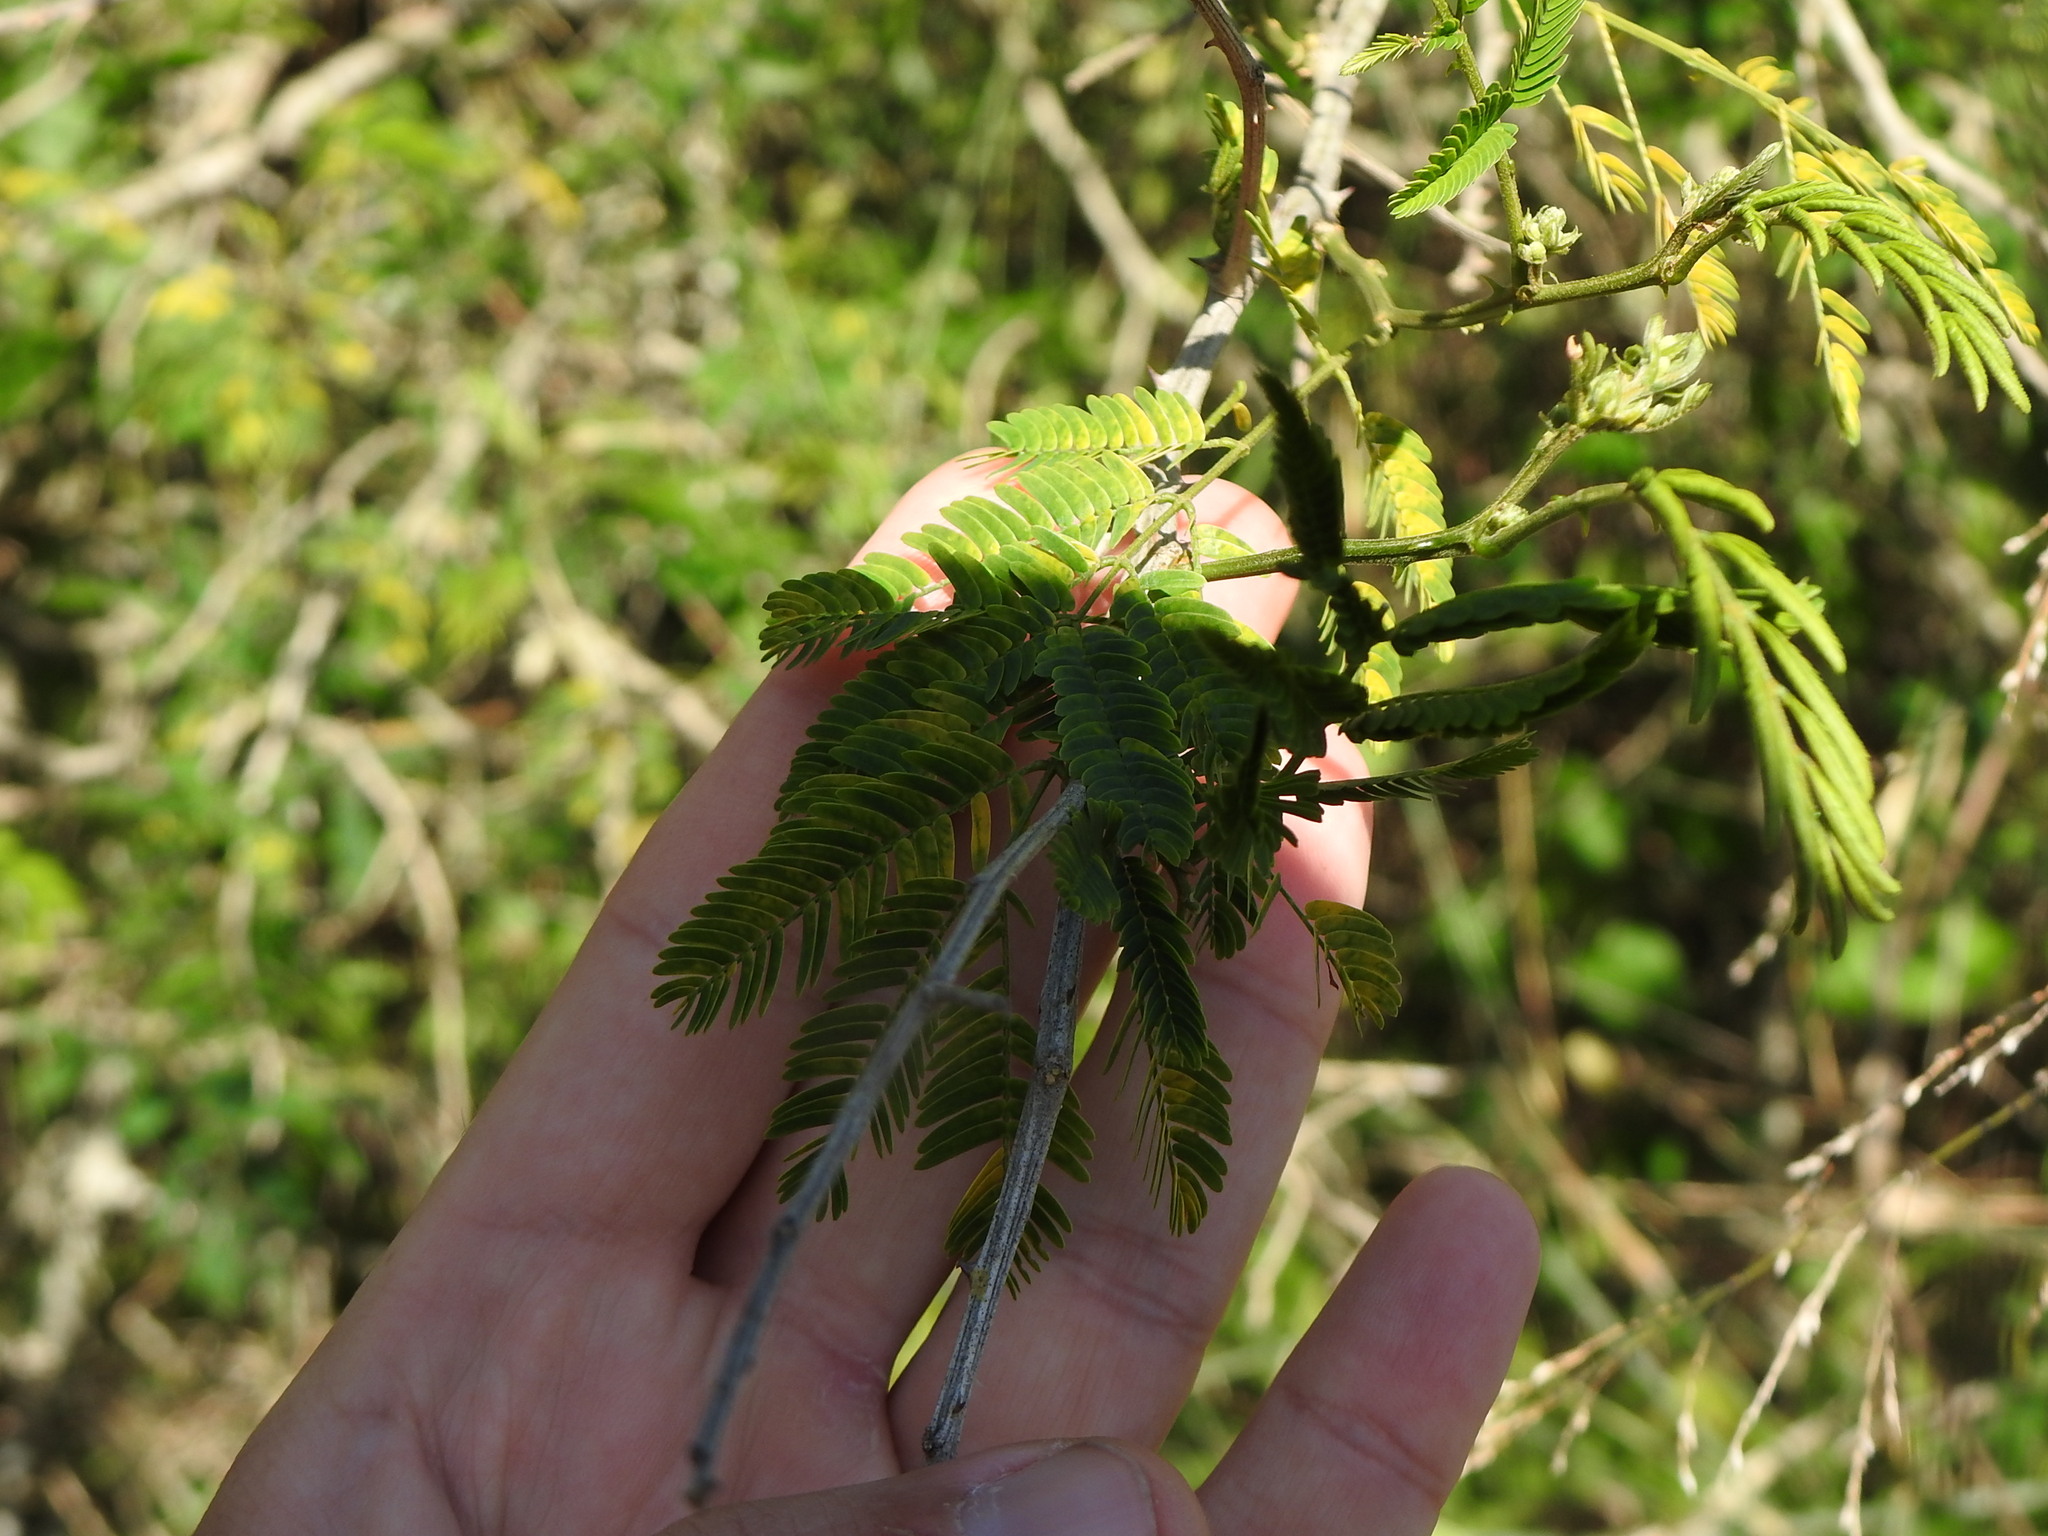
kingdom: Plantae
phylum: Tracheophyta
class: Magnoliopsida
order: Fabales
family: Fabaceae
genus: Senegalia
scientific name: Senegalia bonariensis
